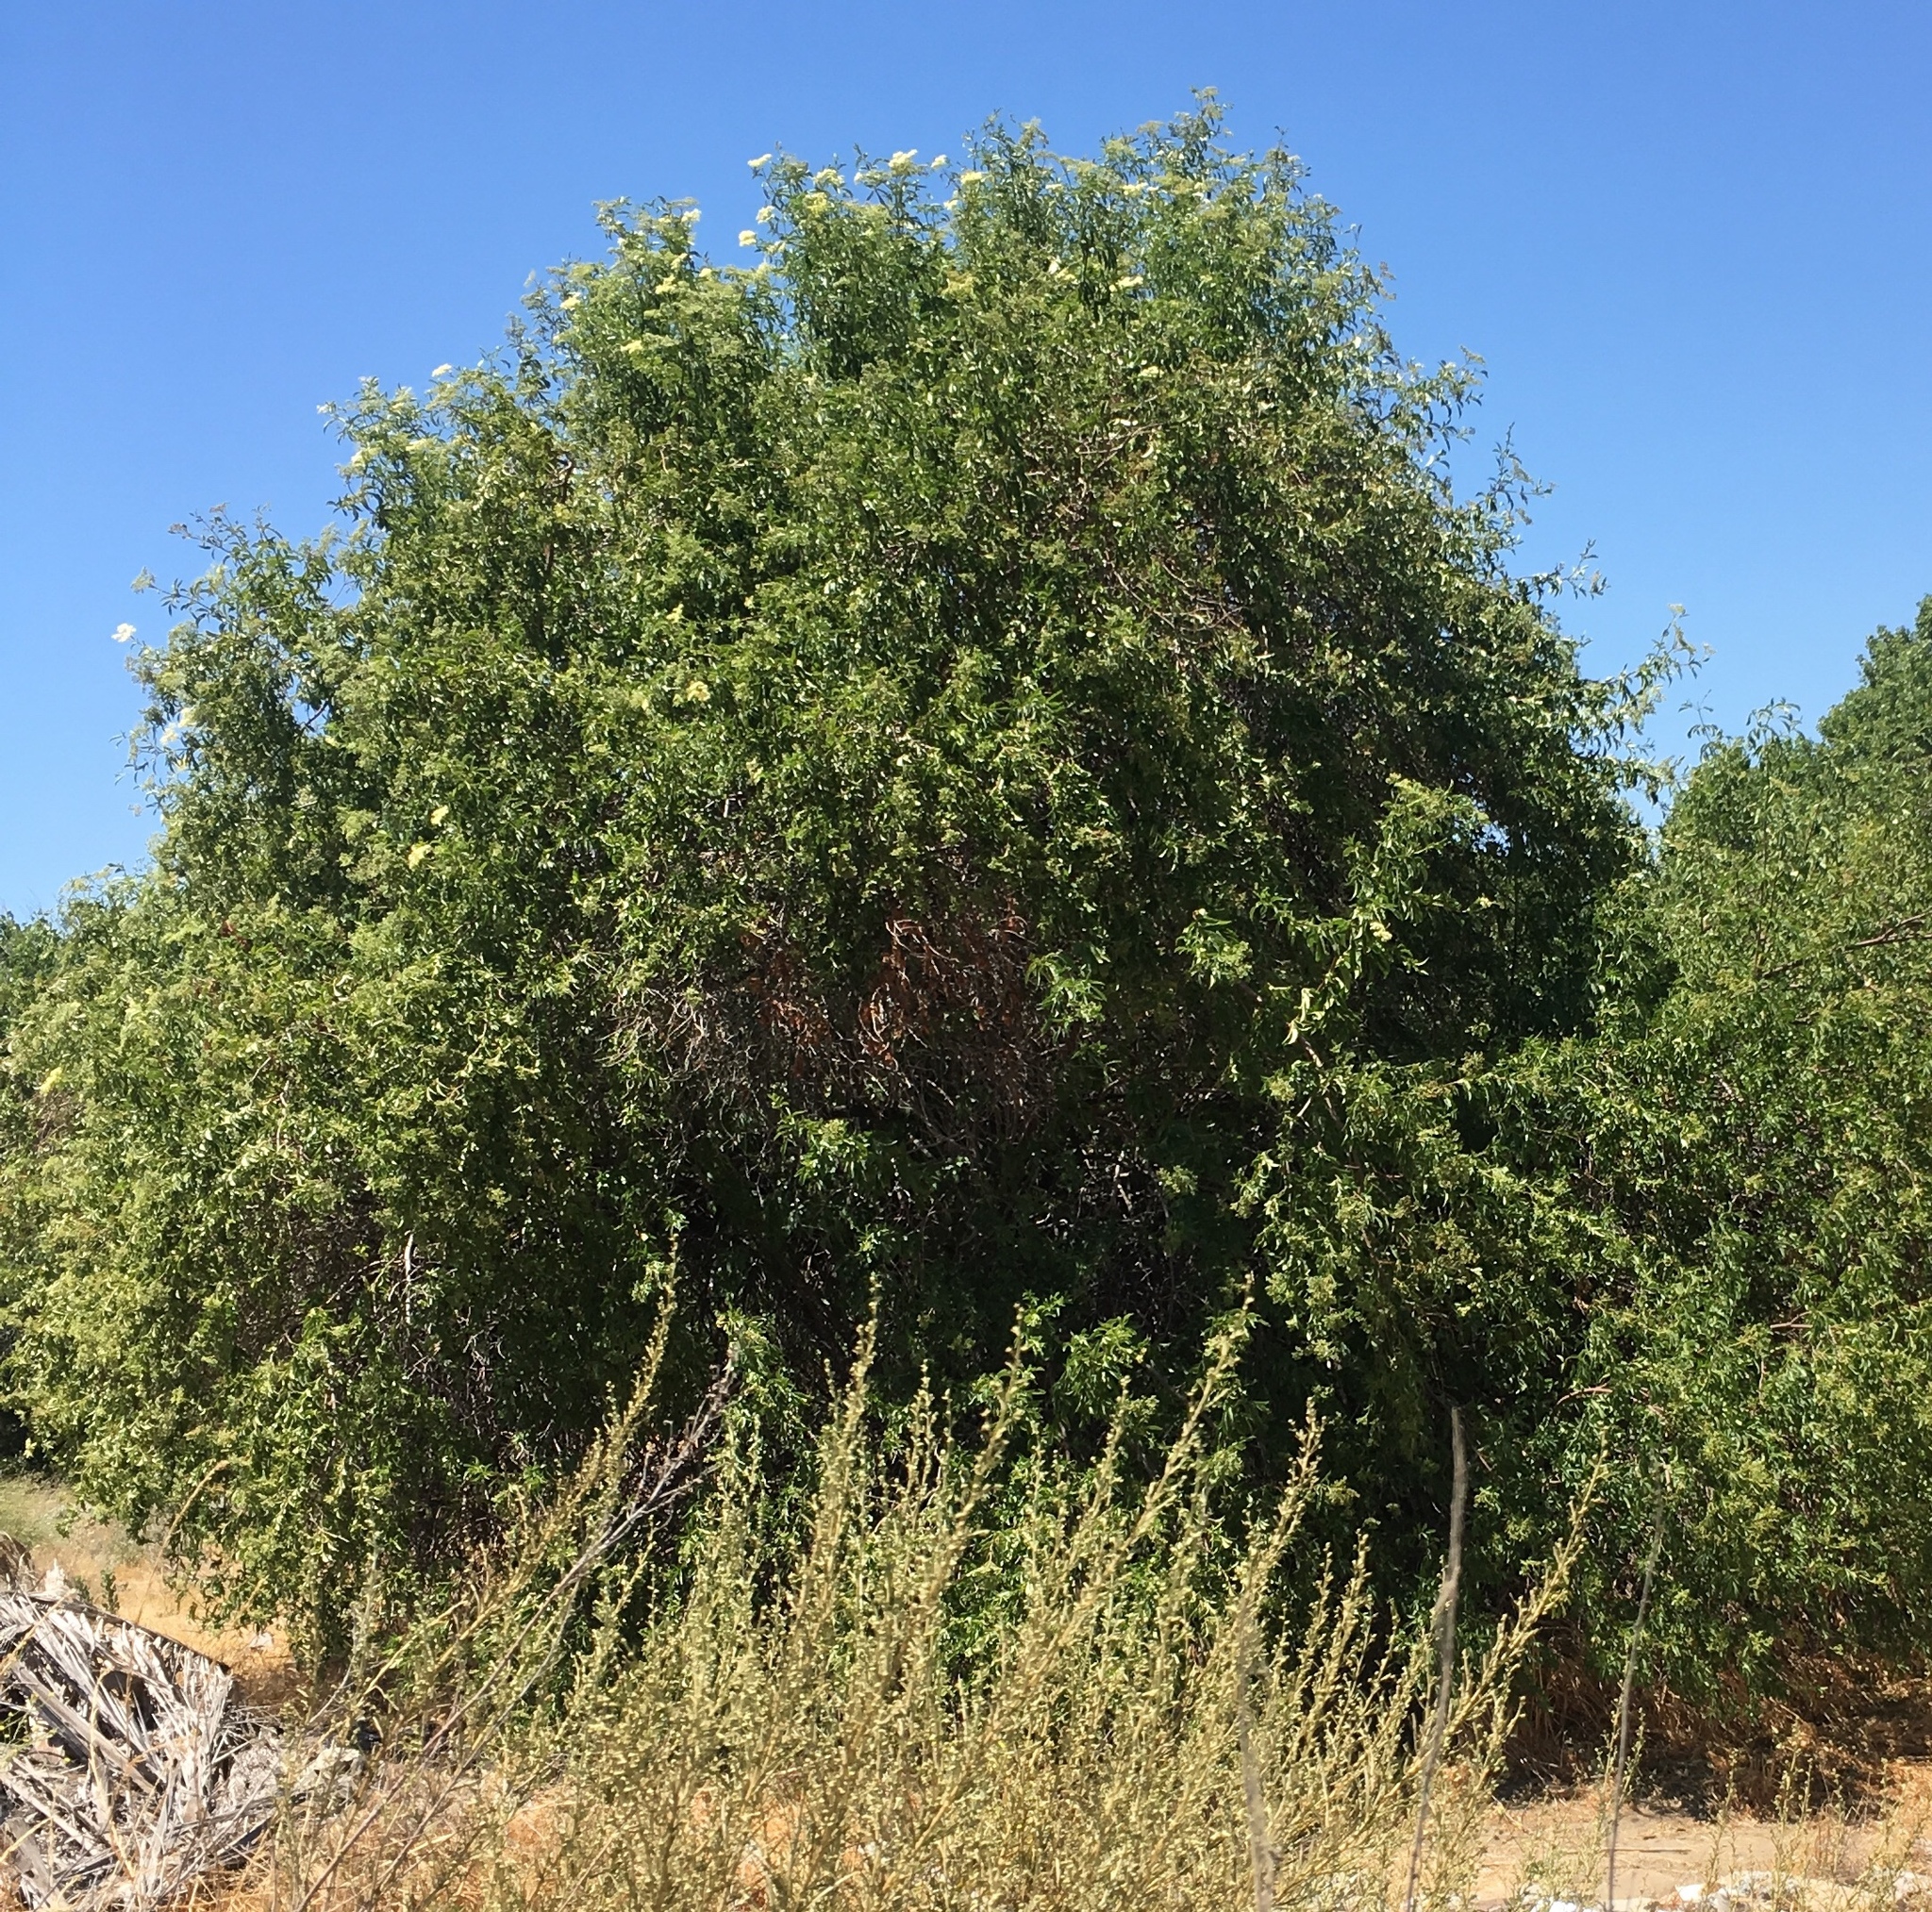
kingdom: Plantae
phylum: Tracheophyta
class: Magnoliopsida
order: Dipsacales
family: Viburnaceae
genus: Sambucus
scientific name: Sambucus cerulea
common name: Blue elder
